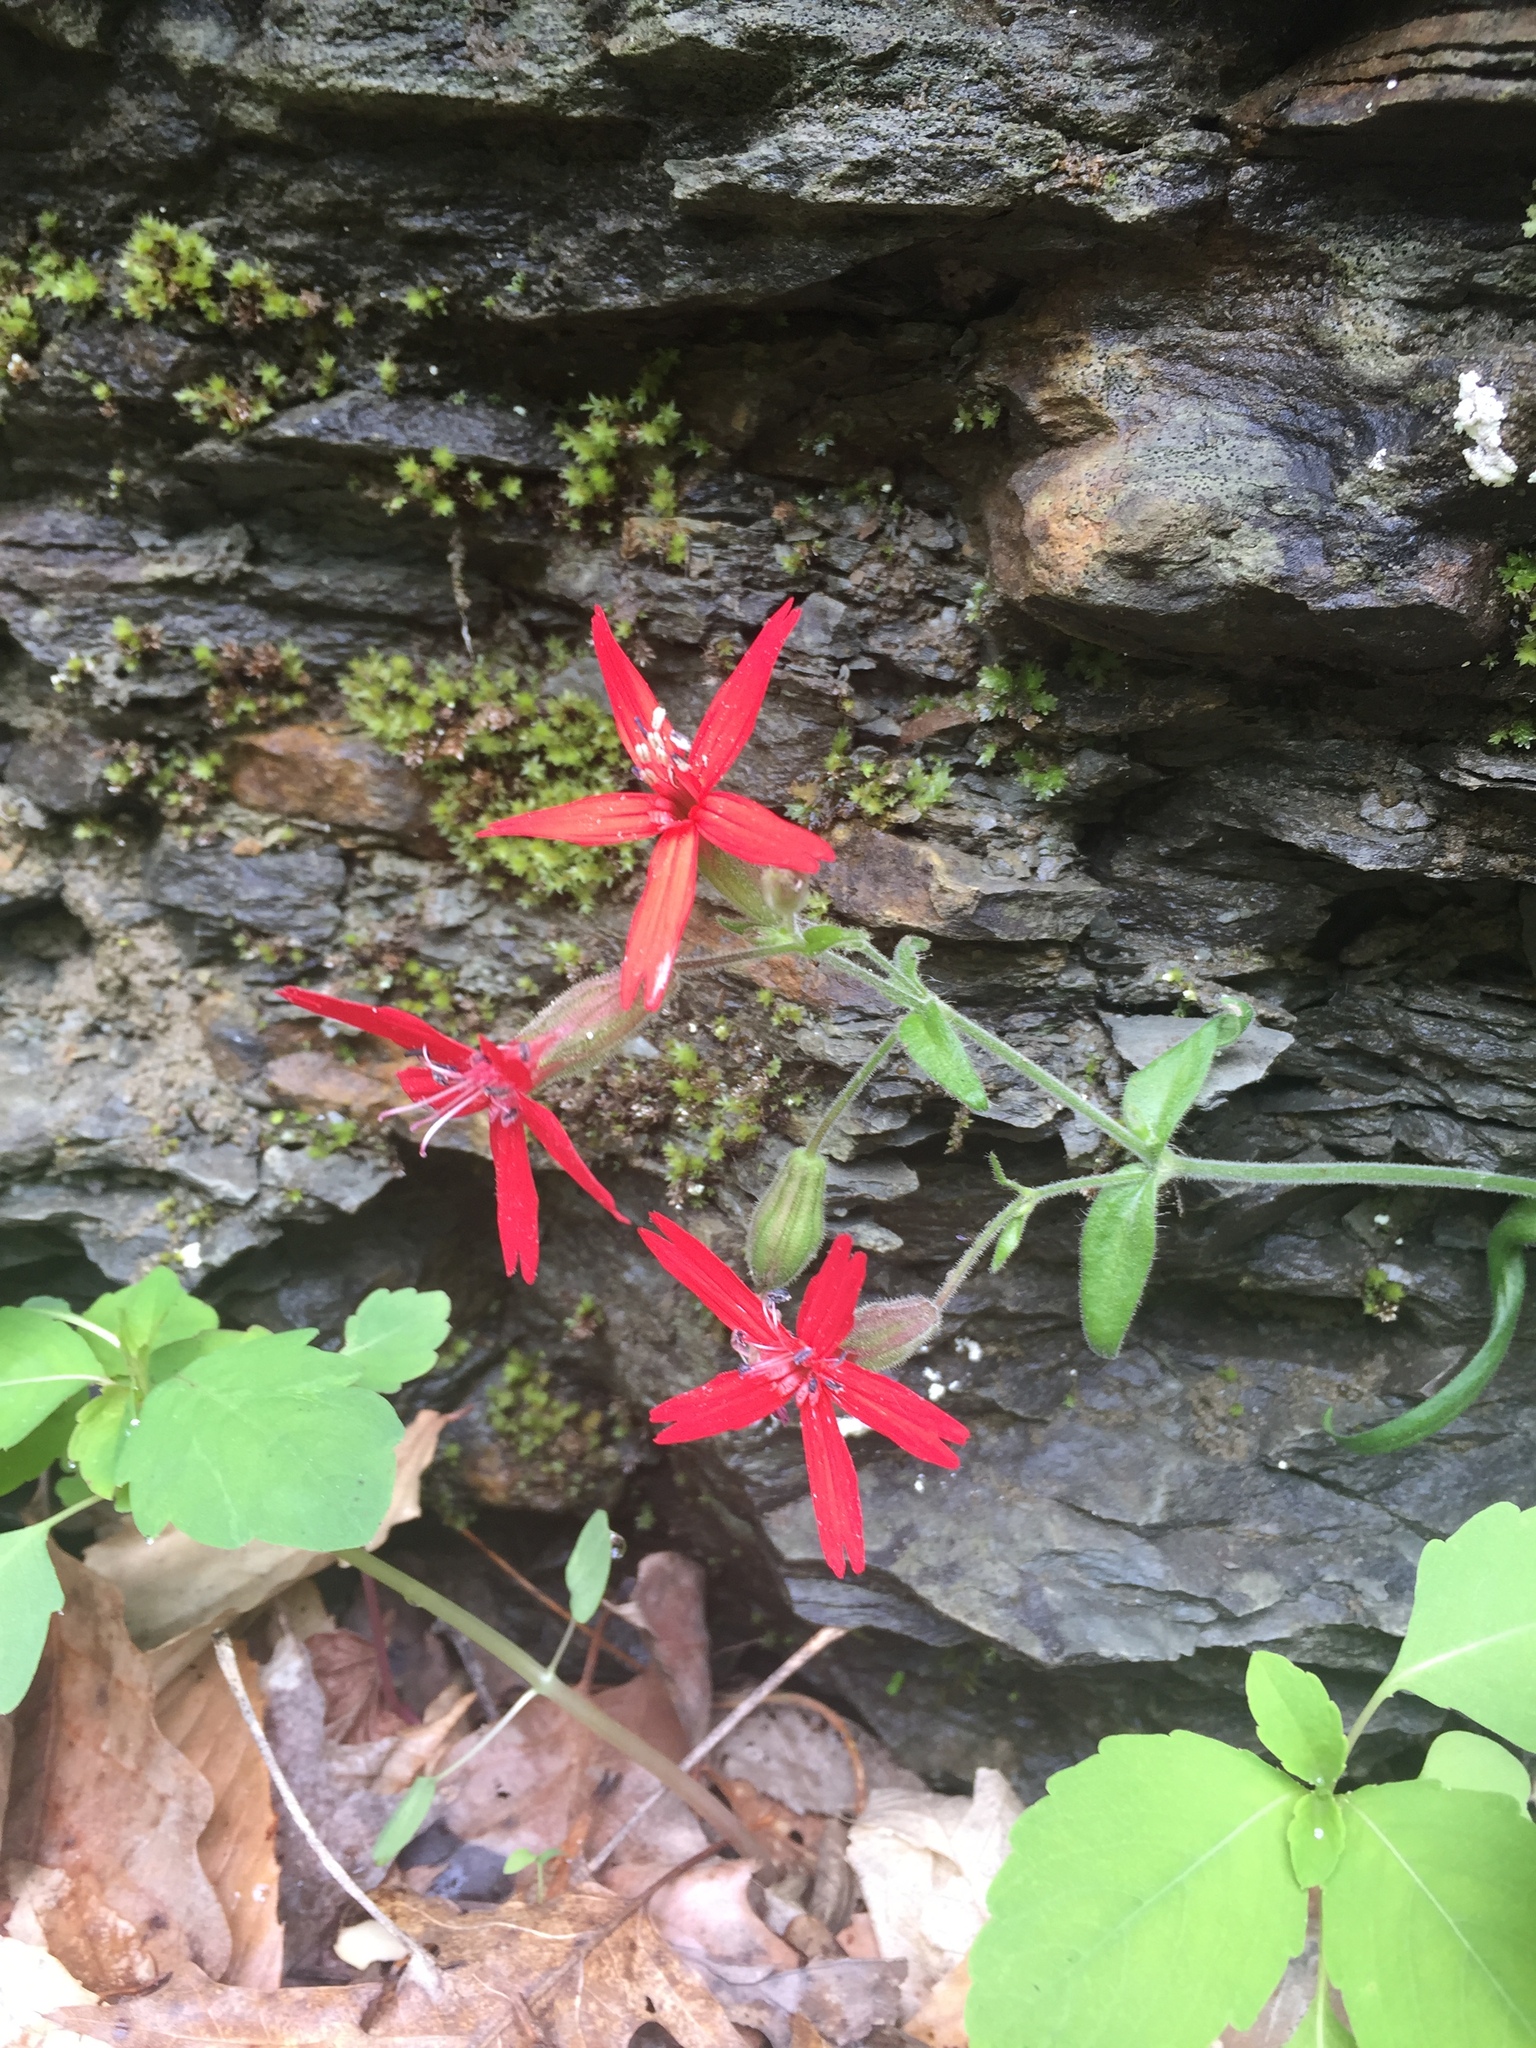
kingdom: Plantae
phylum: Tracheophyta
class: Magnoliopsida
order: Caryophyllales
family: Caryophyllaceae
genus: Silene
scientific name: Silene virginica
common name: Fire-pink
